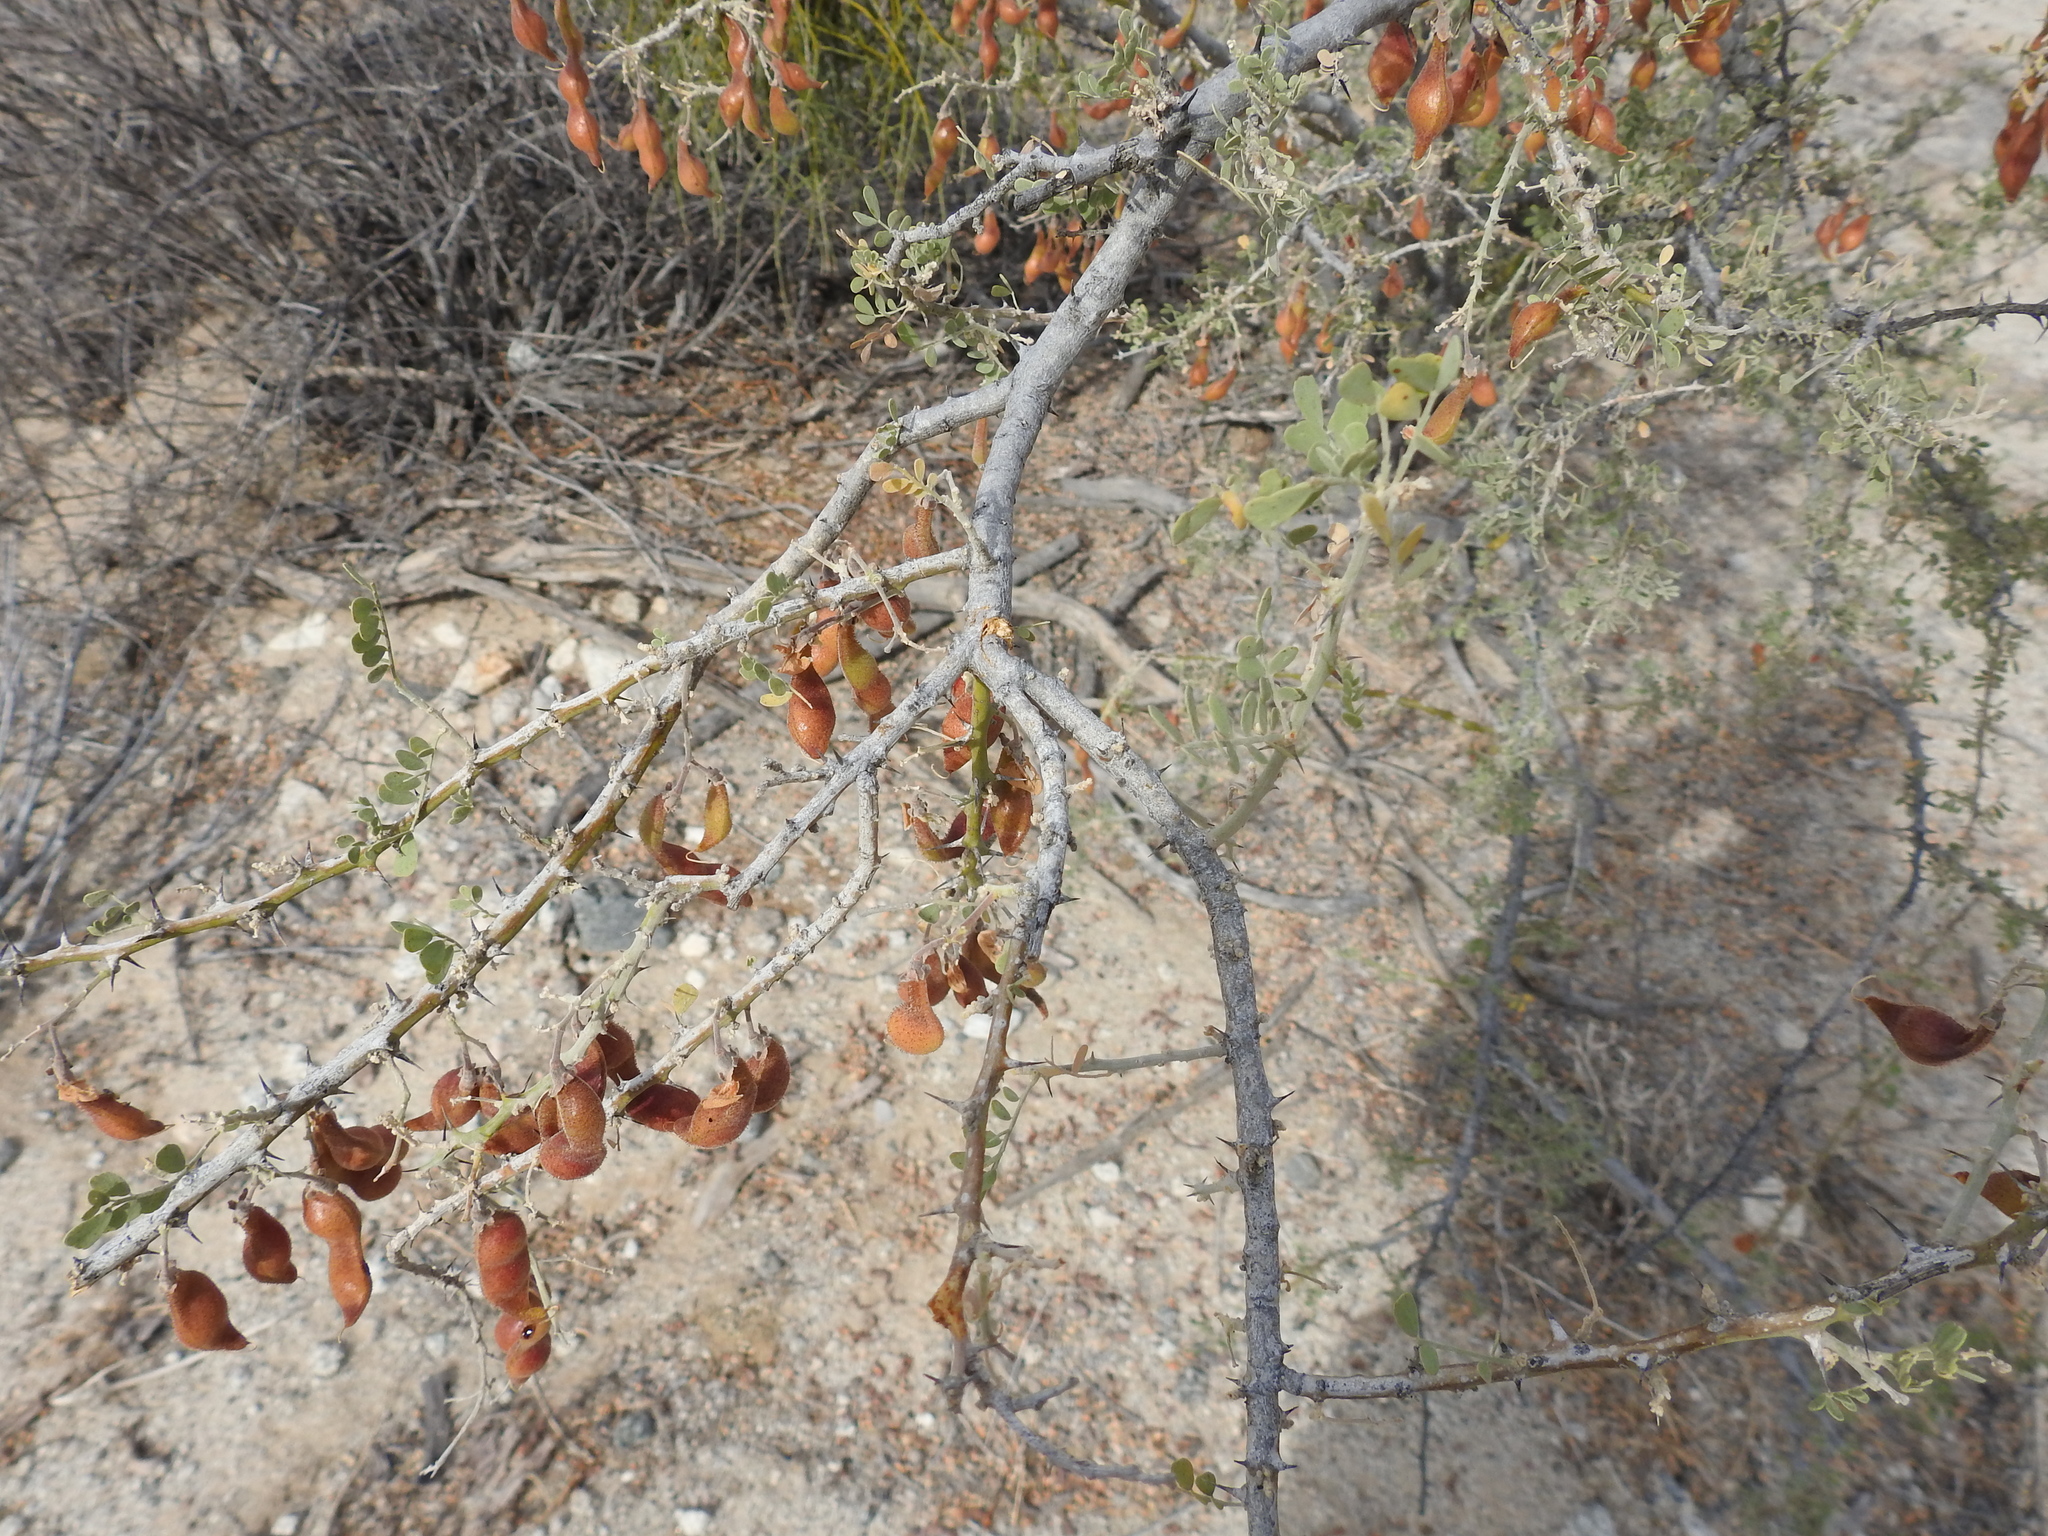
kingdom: Plantae
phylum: Tracheophyta
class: Magnoliopsida
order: Fabales
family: Fabaceae
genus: Olneya
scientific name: Olneya tesota
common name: Desert ironwood
